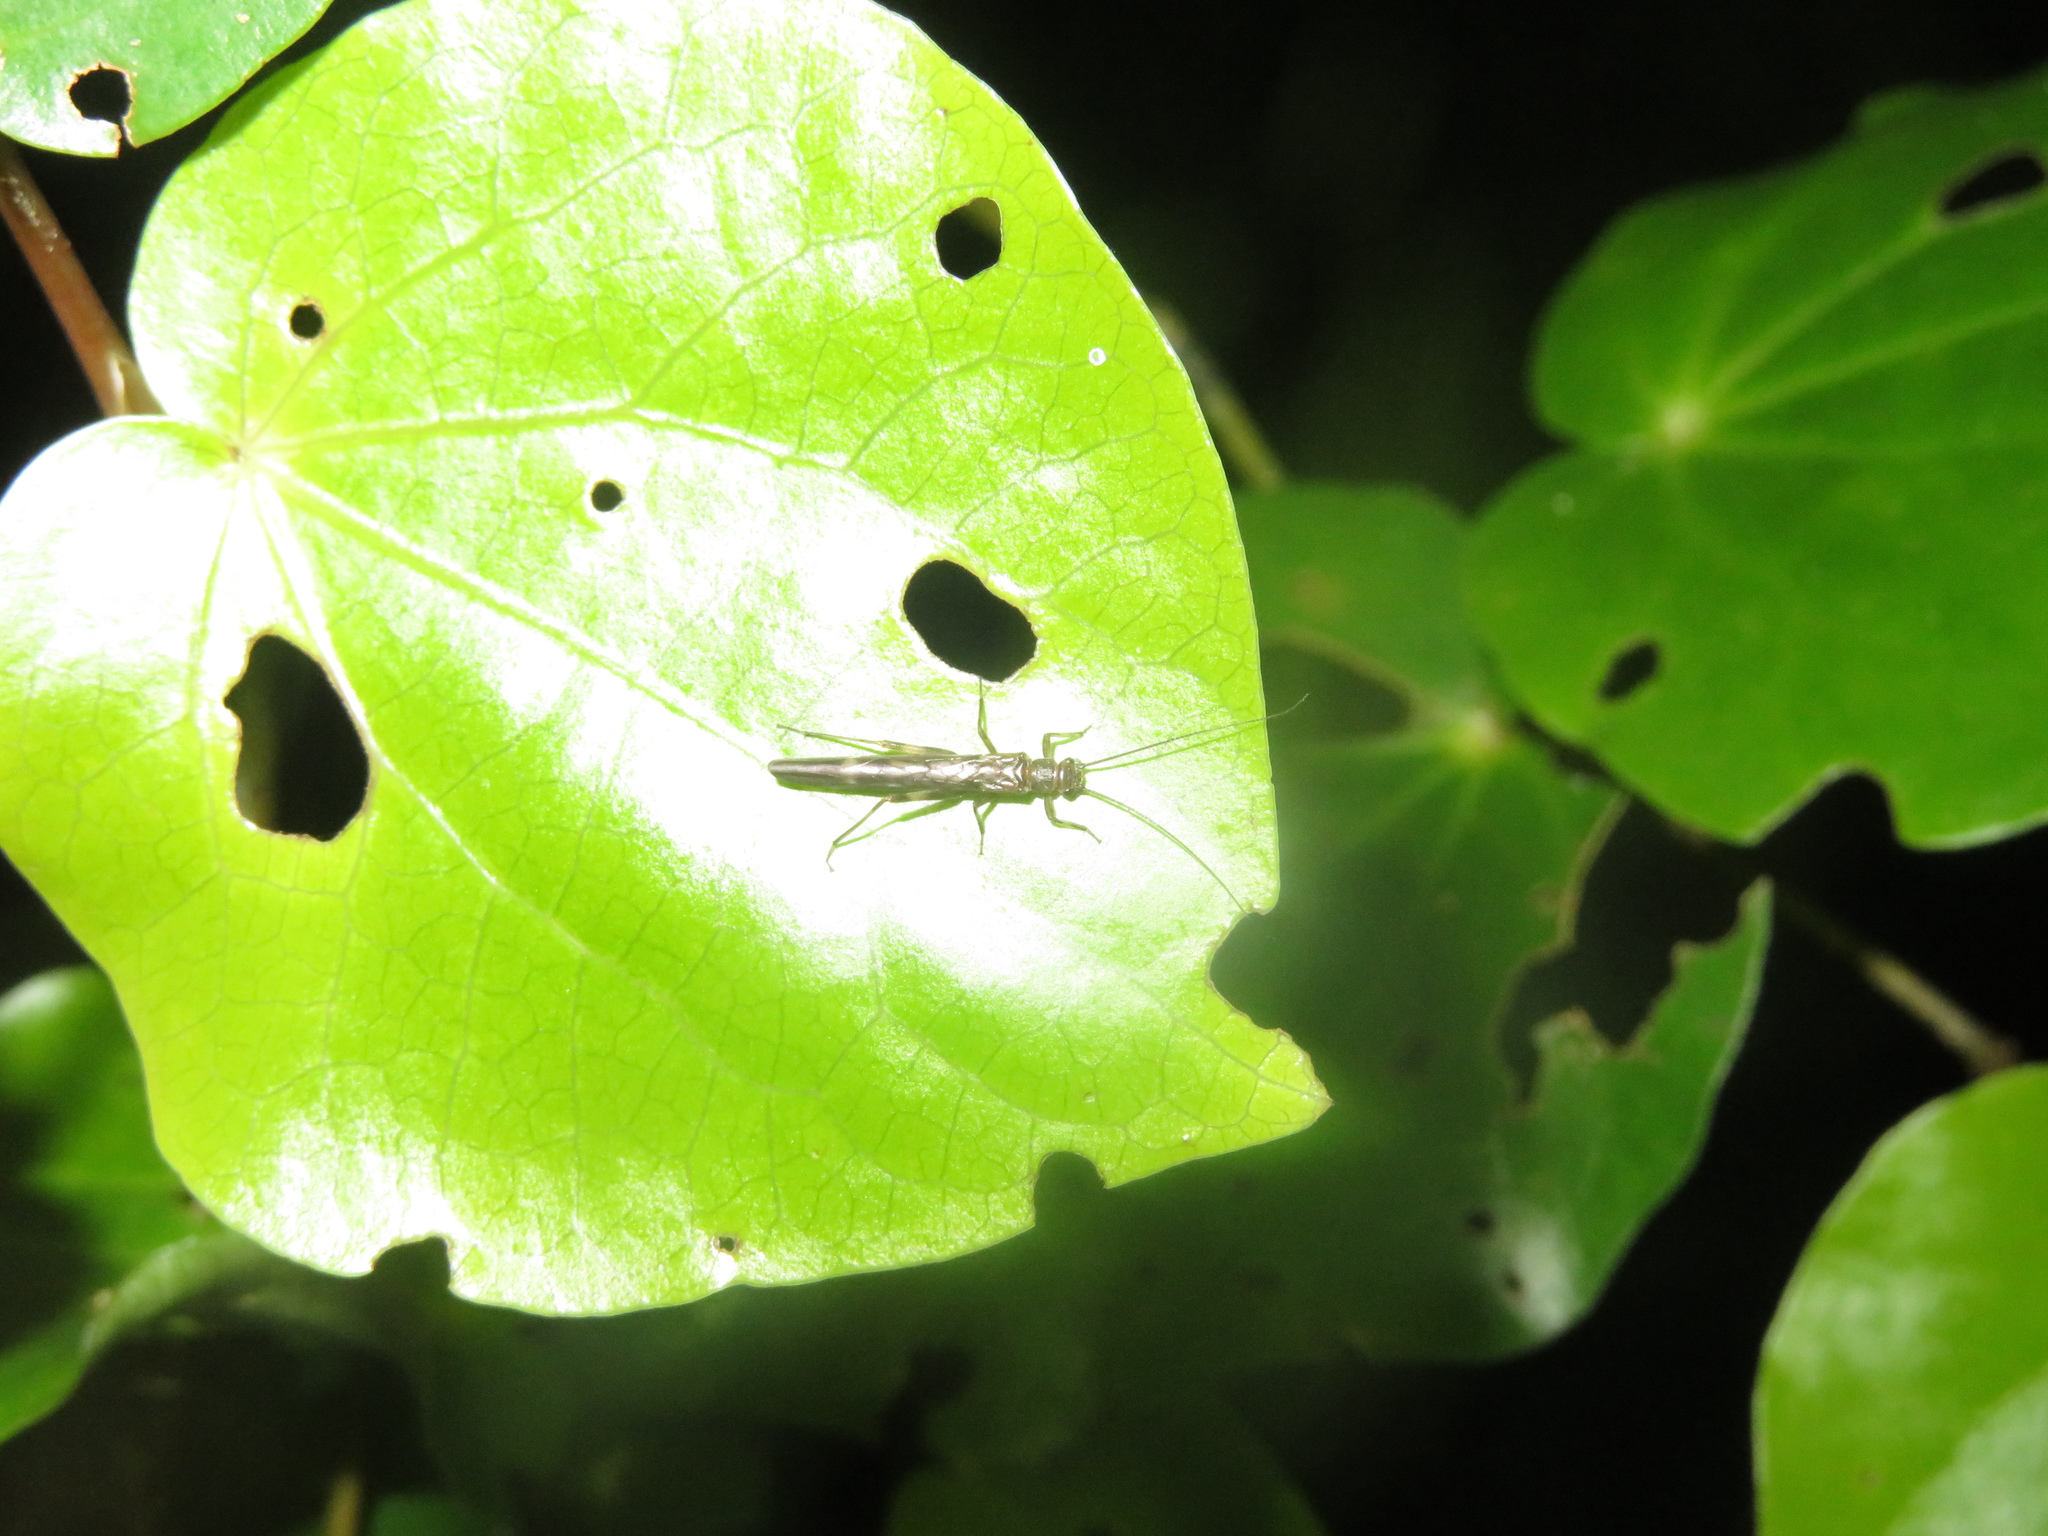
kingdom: Animalia
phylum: Arthropoda
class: Insecta
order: Plecoptera
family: Gripopterygidae
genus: Acroperla
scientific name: Acroperla trivacuata
